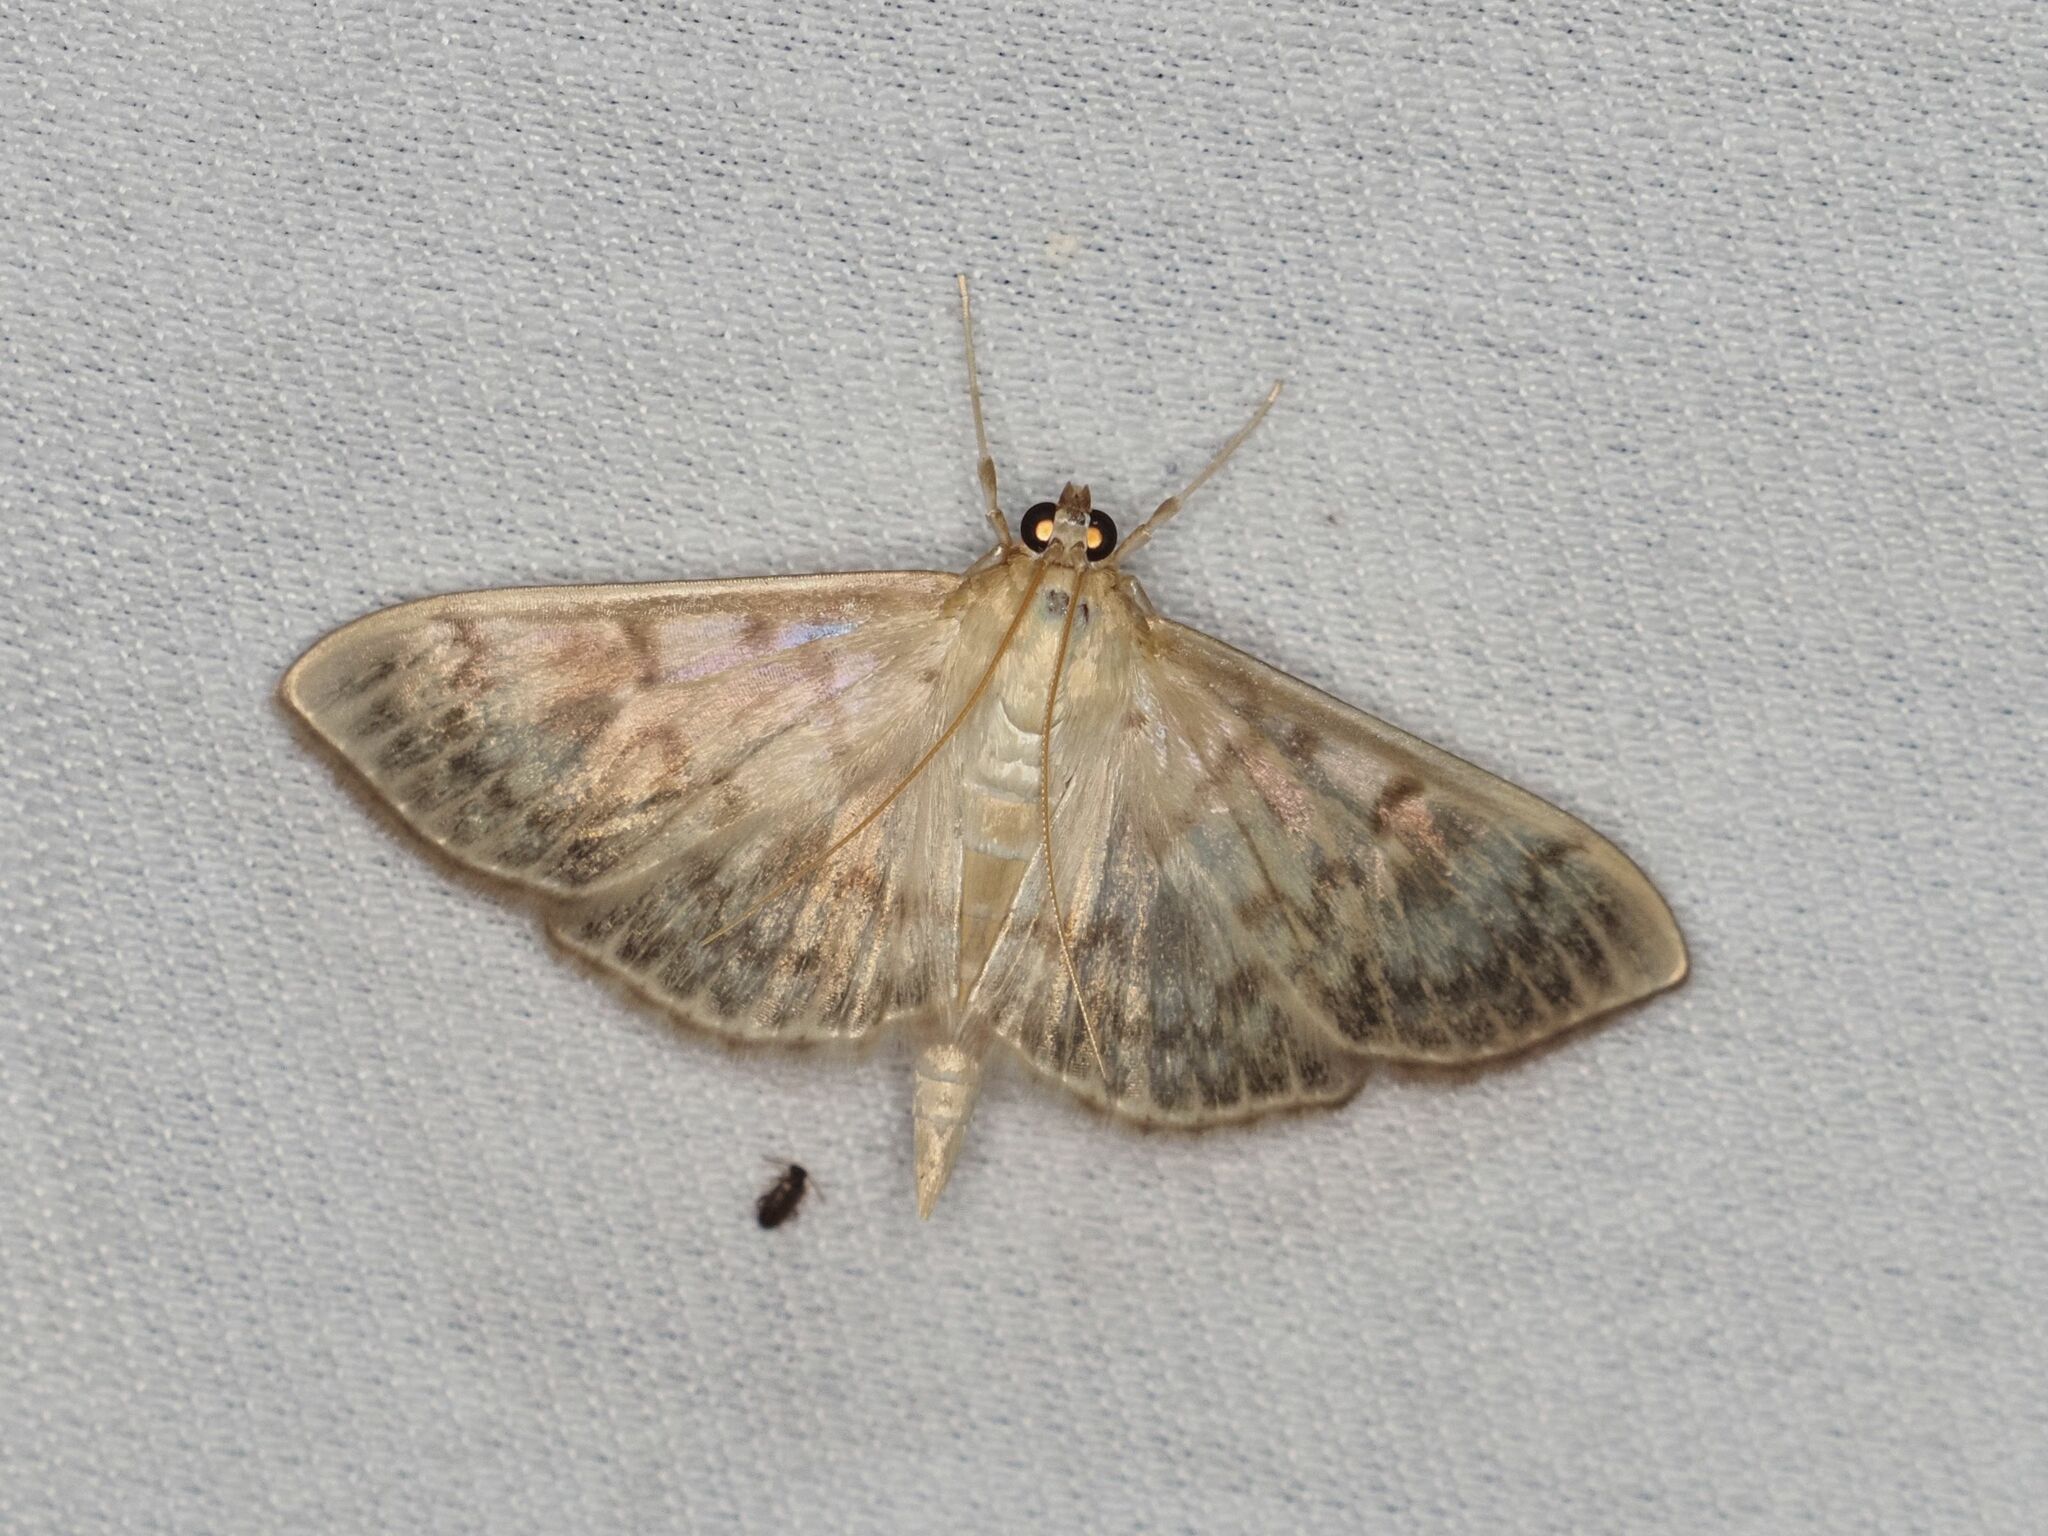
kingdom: Animalia
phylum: Arthropoda
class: Insecta
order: Lepidoptera
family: Crambidae
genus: Patania
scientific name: Patania ruralis
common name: Mother of pearl
